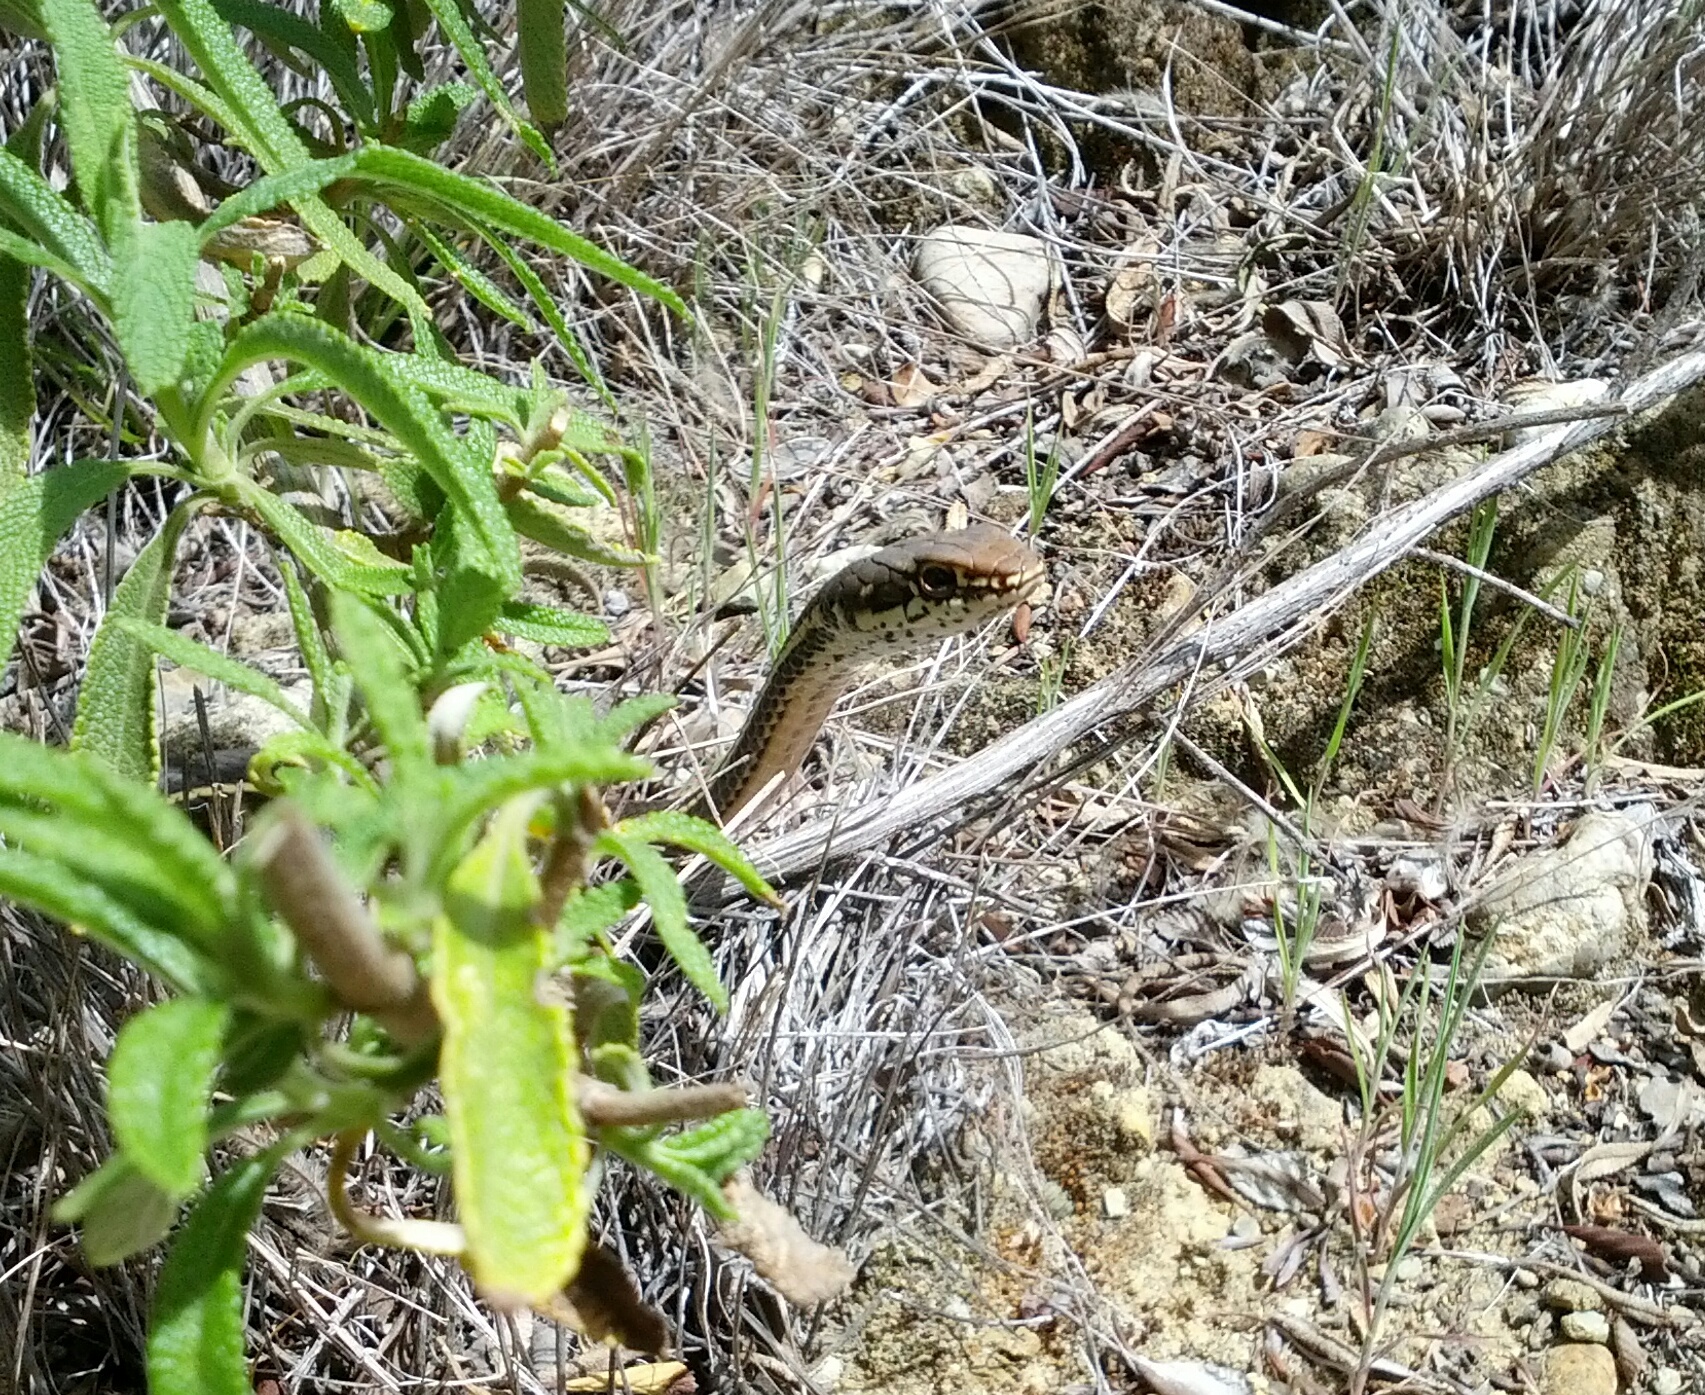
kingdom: Animalia
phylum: Chordata
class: Squamata
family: Colubridae
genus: Masticophis
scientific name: Masticophis lateralis
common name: Striped racer
